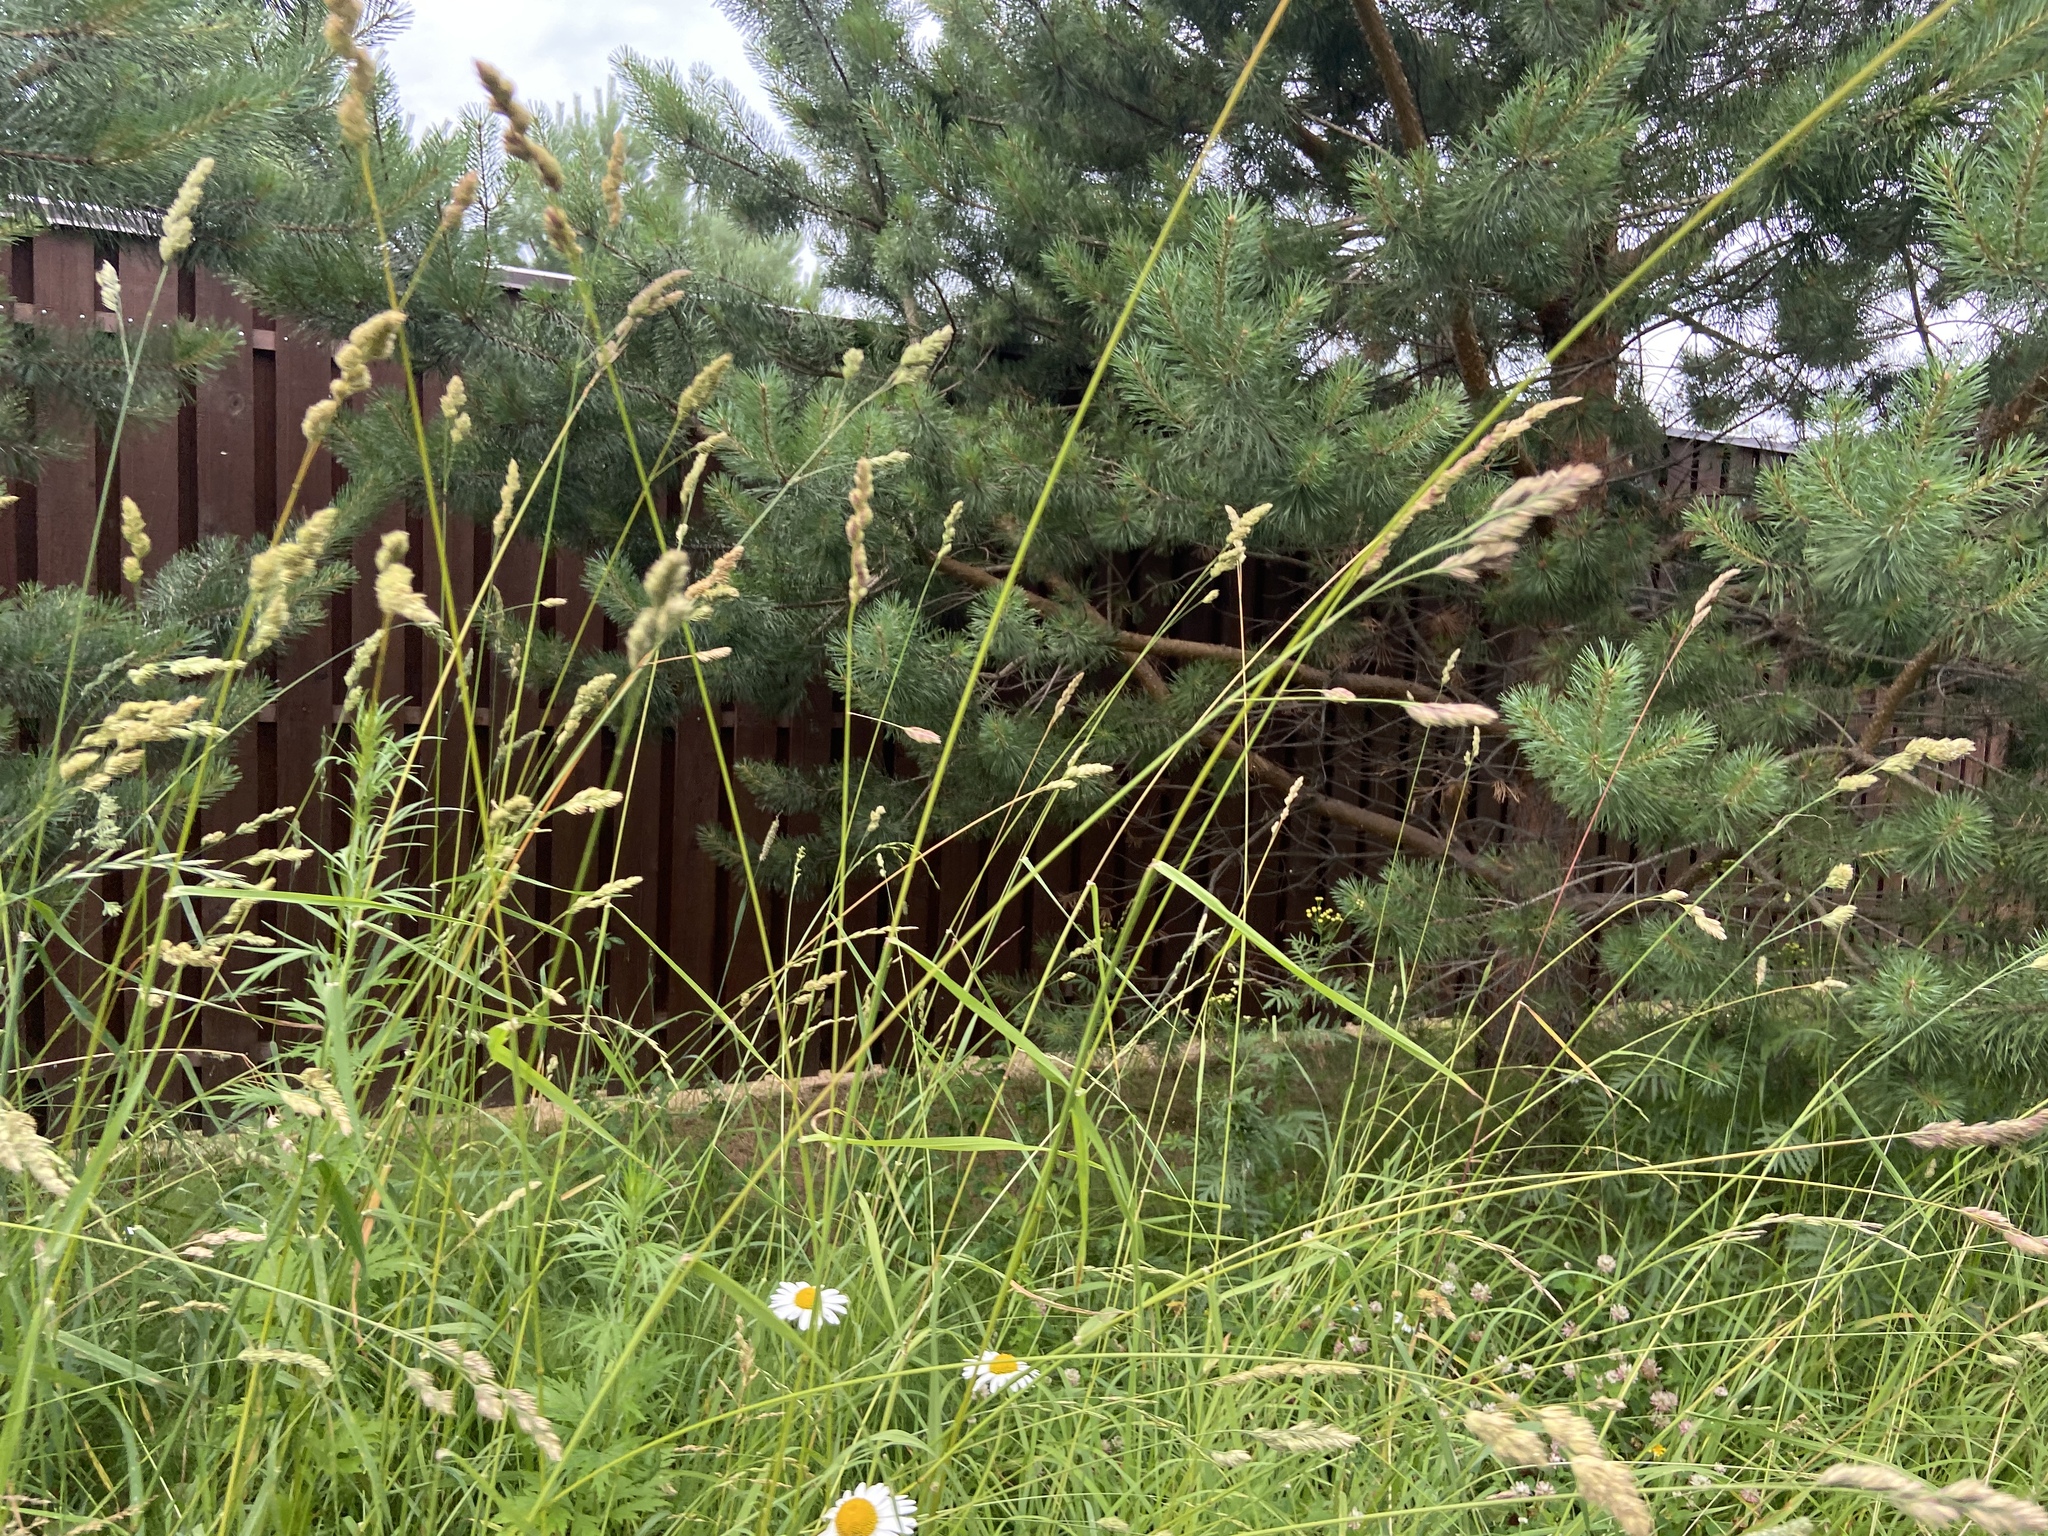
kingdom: Plantae
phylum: Tracheophyta
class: Liliopsida
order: Poales
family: Poaceae
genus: Dactylis
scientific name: Dactylis glomerata
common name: Orchardgrass
